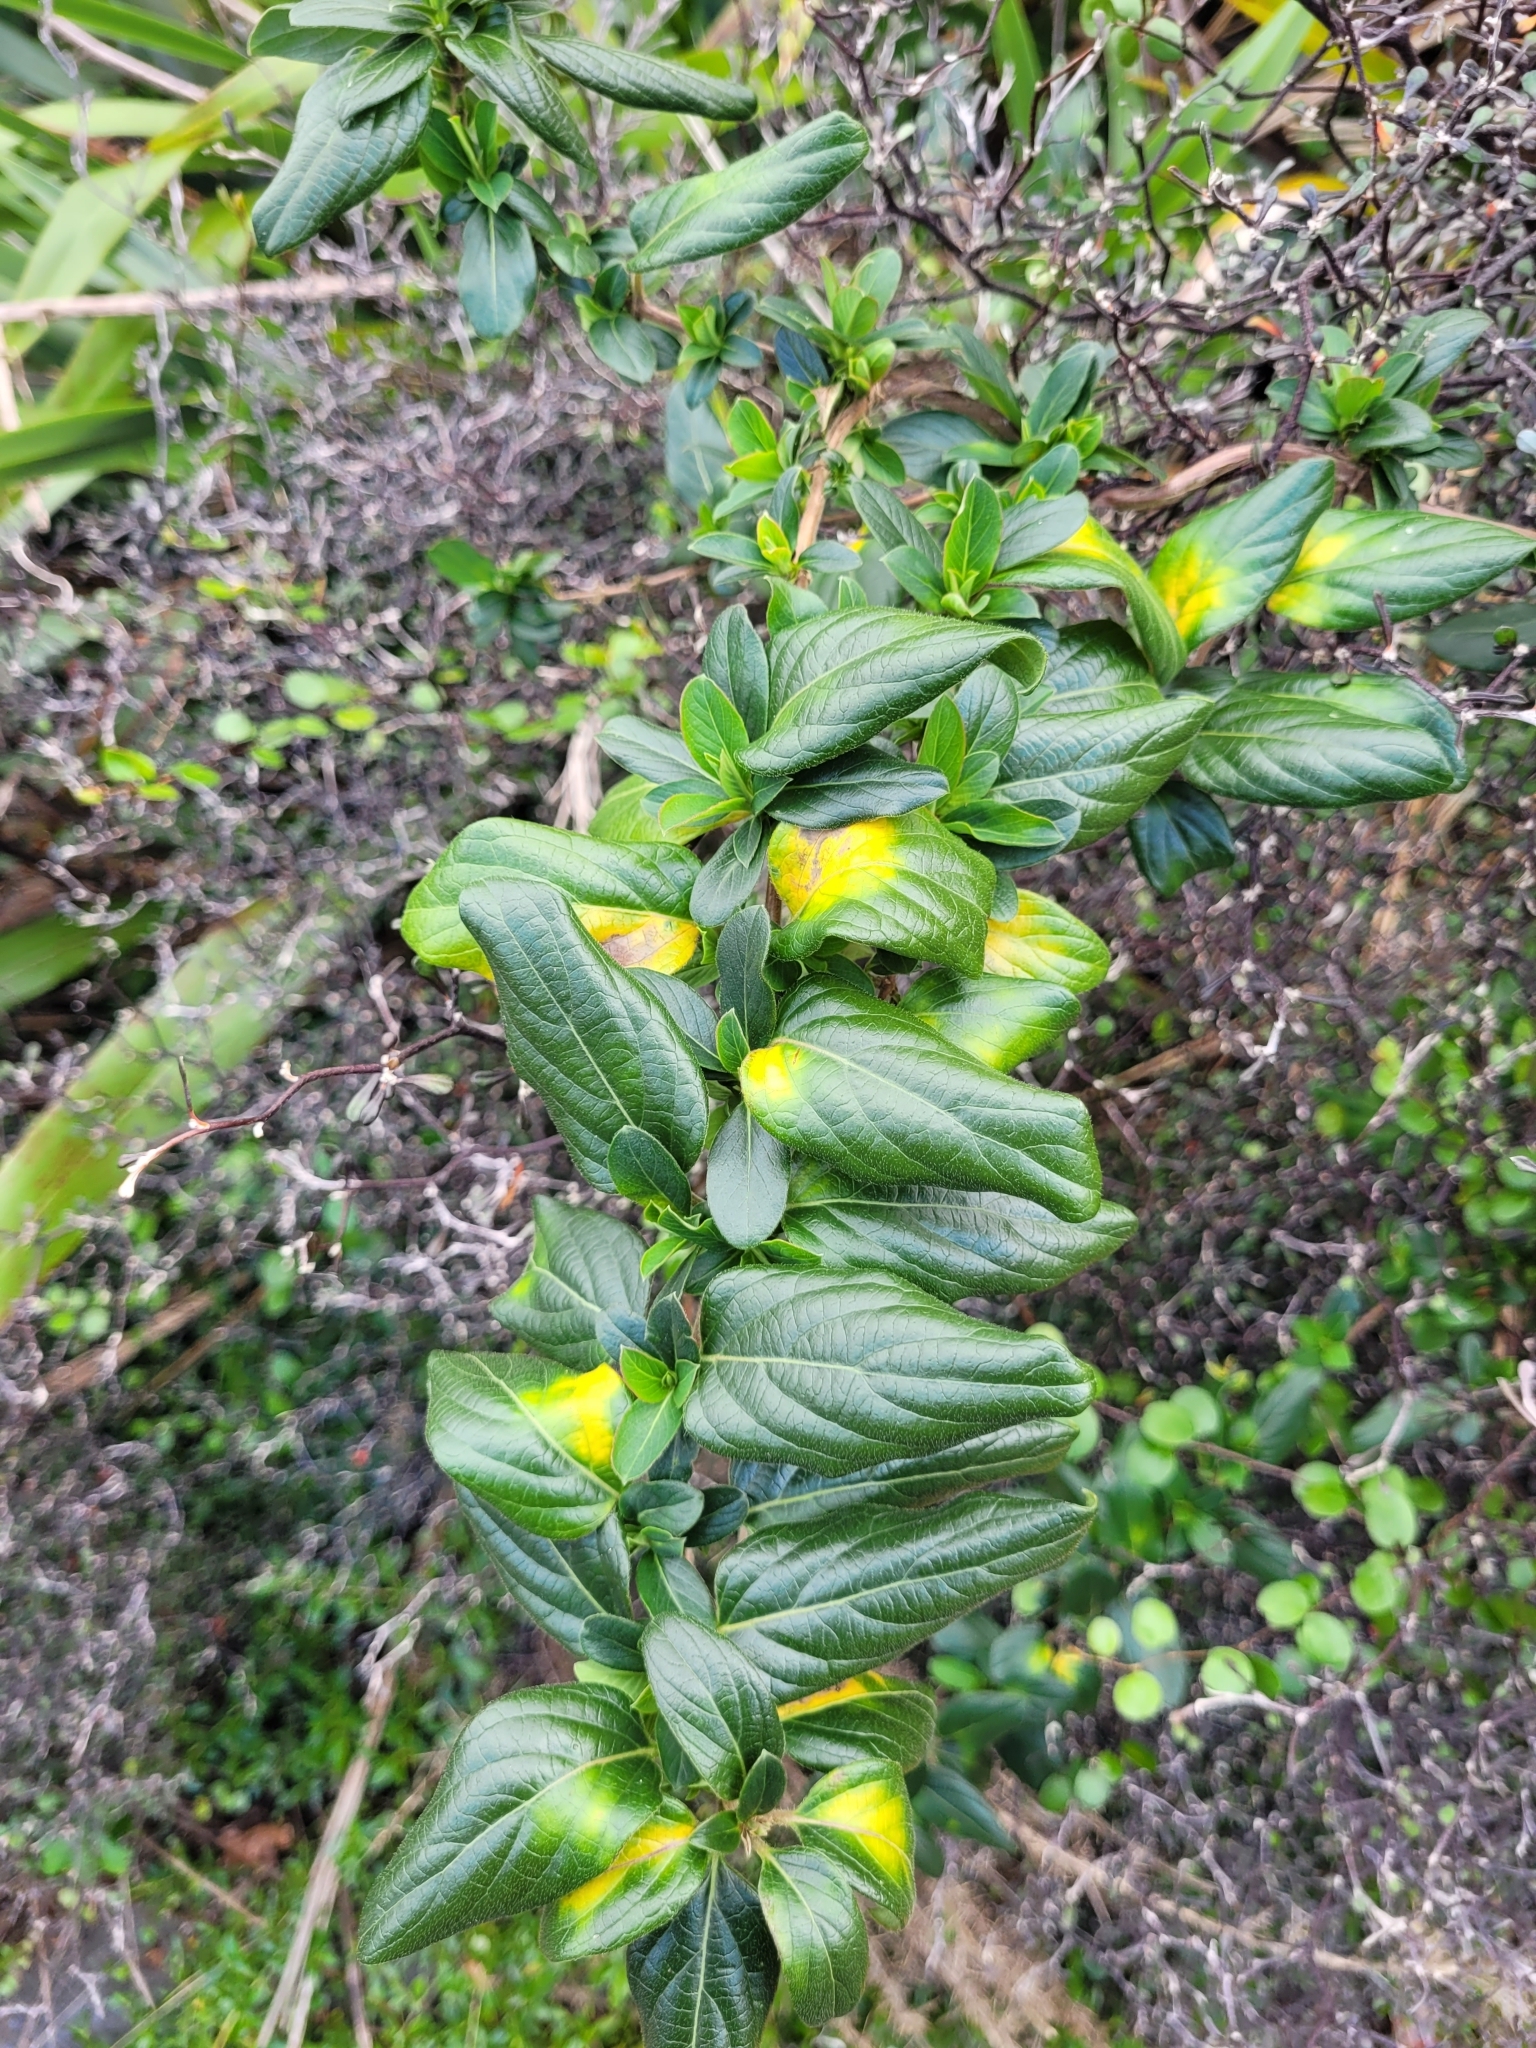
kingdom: Plantae
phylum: Tracheophyta
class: Magnoliopsida
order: Dipsacales
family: Caprifoliaceae
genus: Lonicera
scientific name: Lonicera japonica
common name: Japanese honeysuckle
